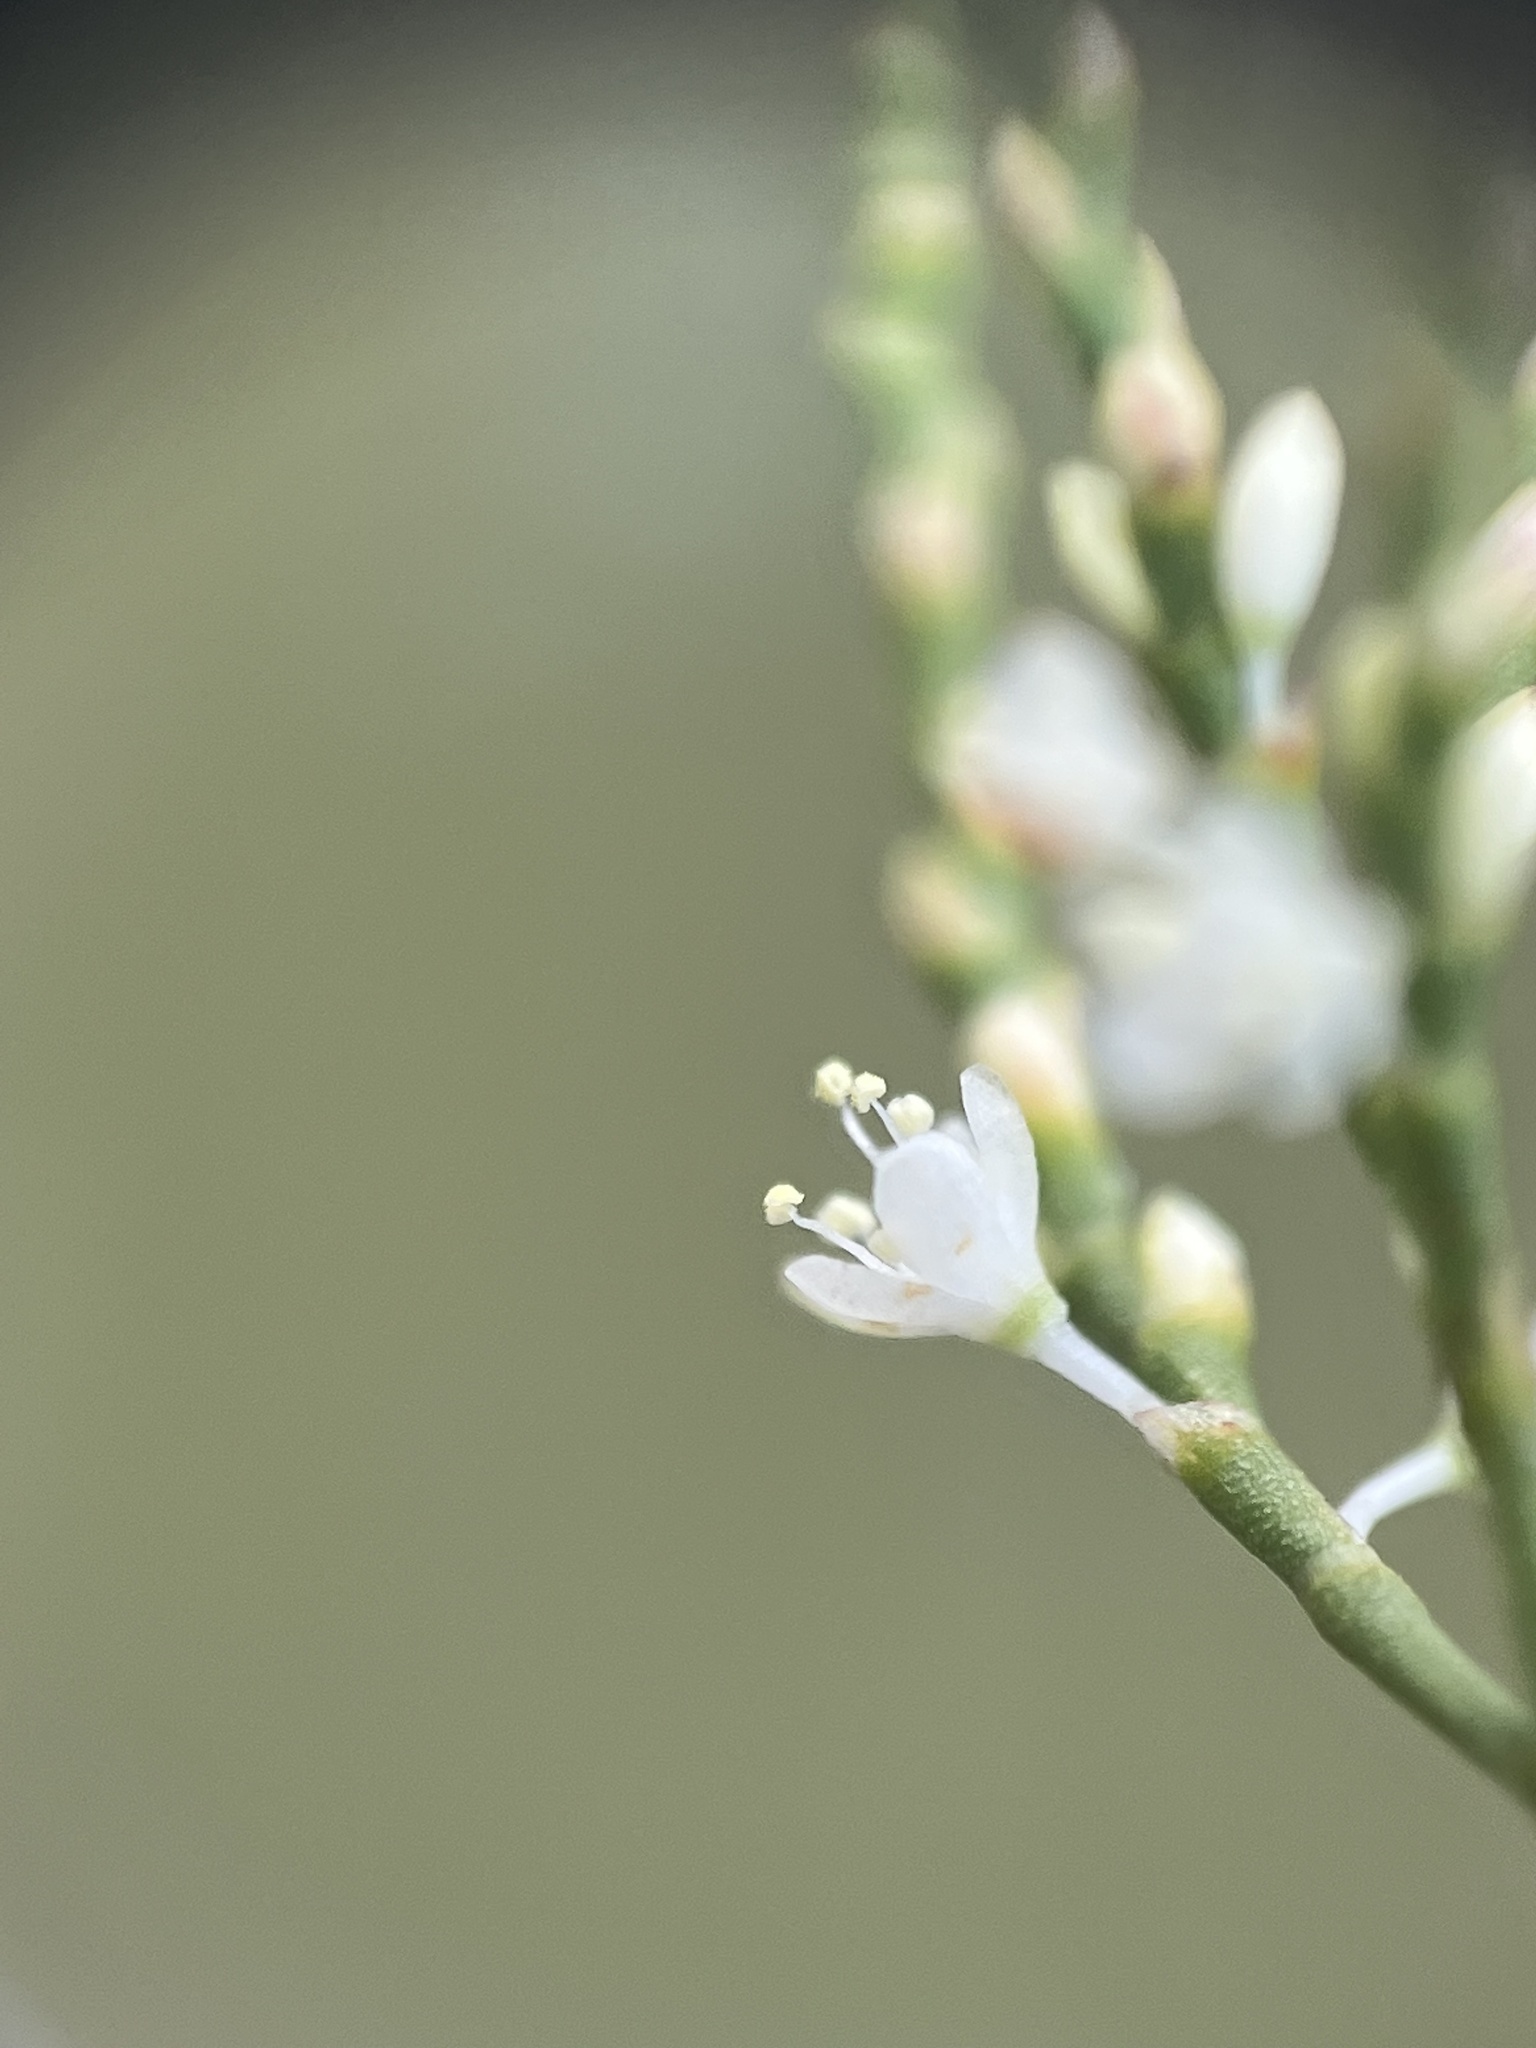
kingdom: Plantae
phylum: Tracheophyta
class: Magnoliopsida
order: Caryophyllales
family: Polygonaceae
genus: Polygonella
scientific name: Polygonella polygama
